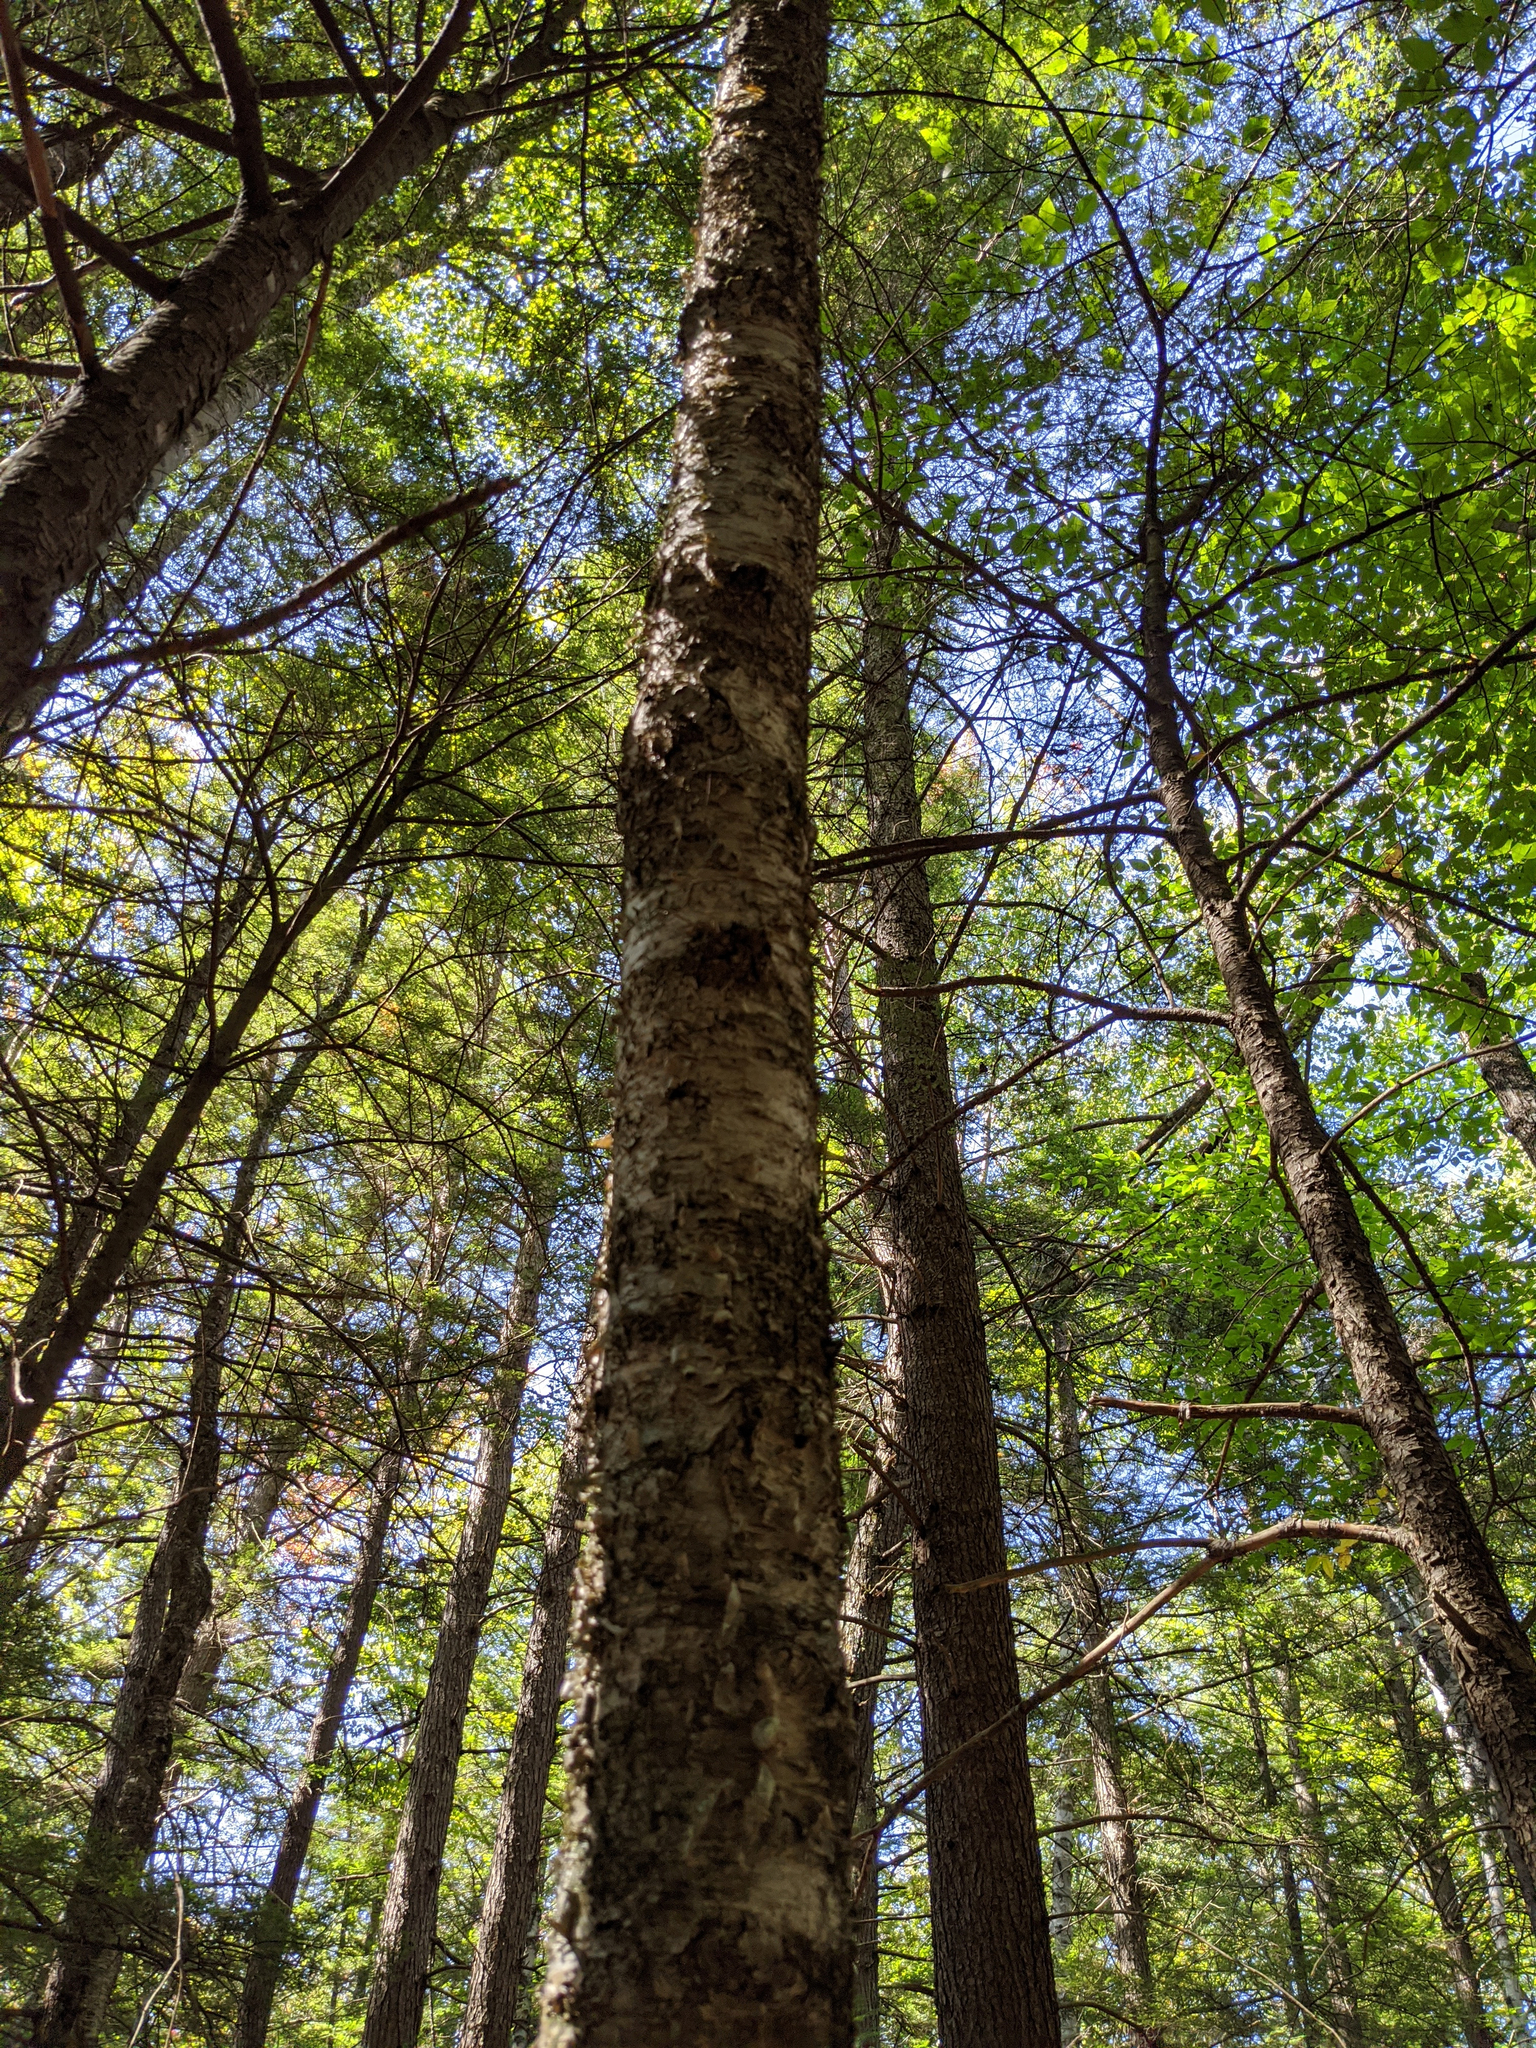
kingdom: Plantae
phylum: Tracheophyta
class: Magnoliopsida
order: Fagales
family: Betulaceae
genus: Betula
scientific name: Betula alleghaniensis
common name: Yellow birch
